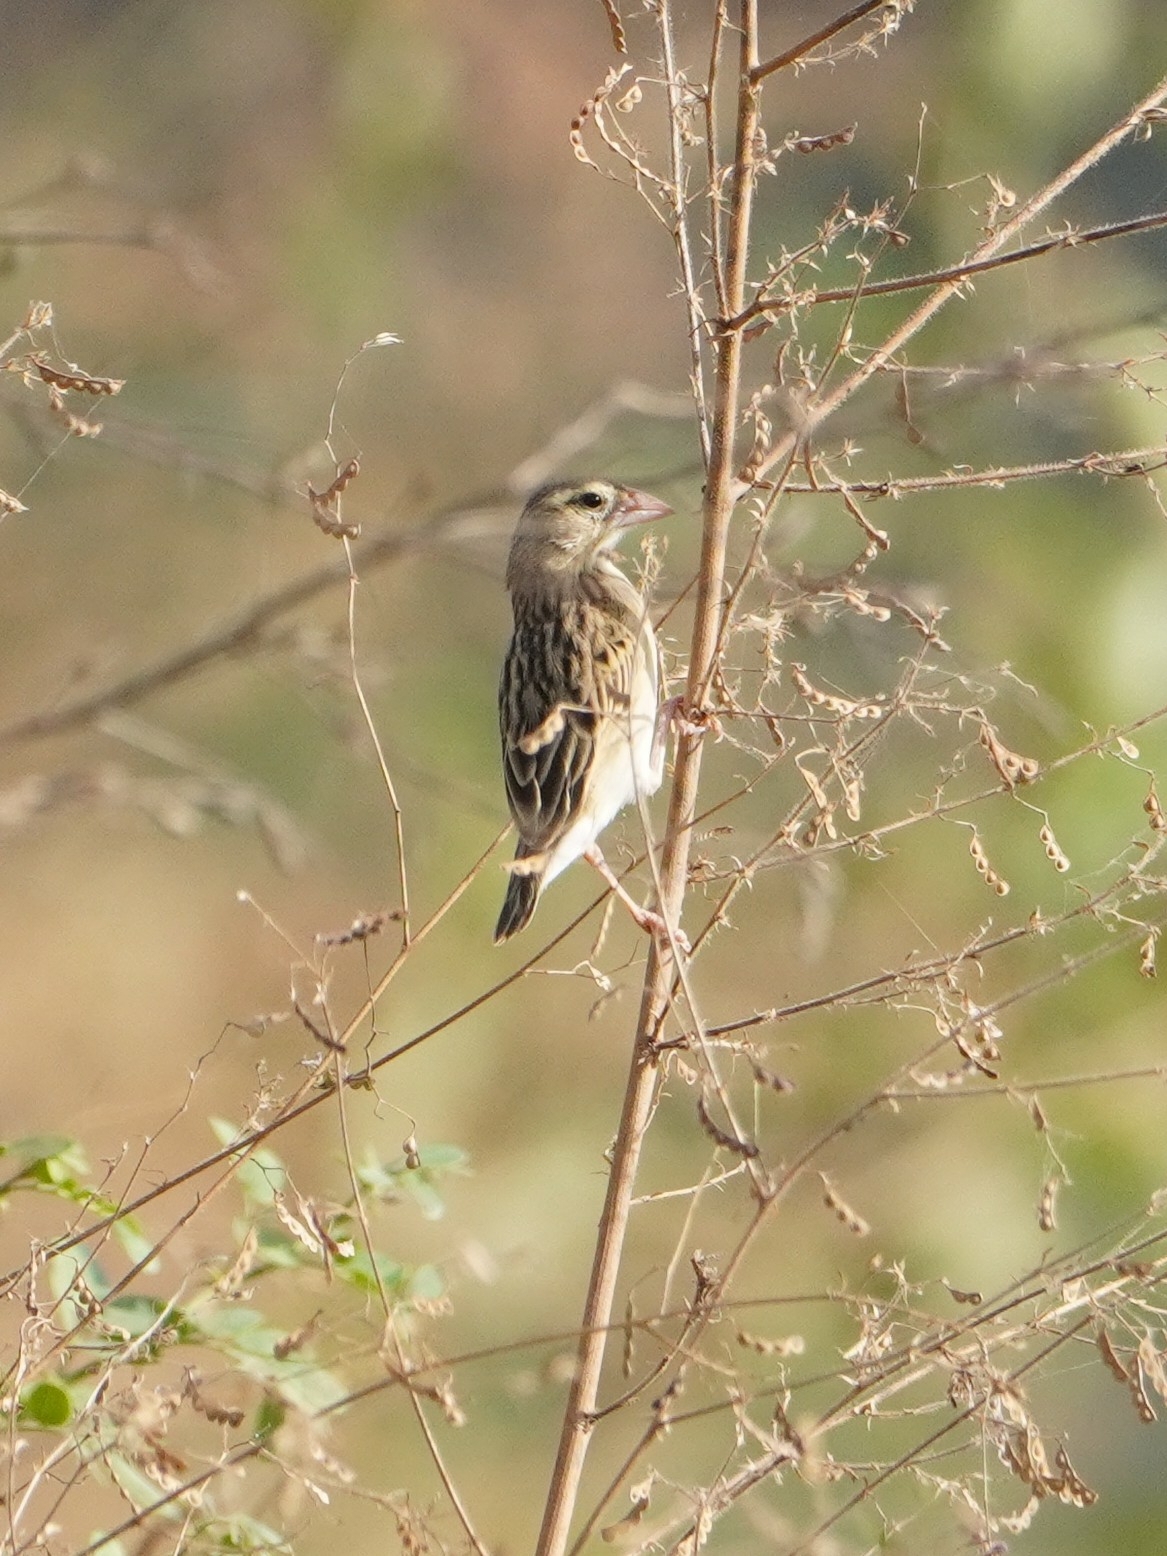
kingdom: Animalia
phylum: Chordata
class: Aves
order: Passeriformes
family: Ploceidae
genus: Euplectes
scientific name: Euplectes franciscanus
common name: Northern red bishop
